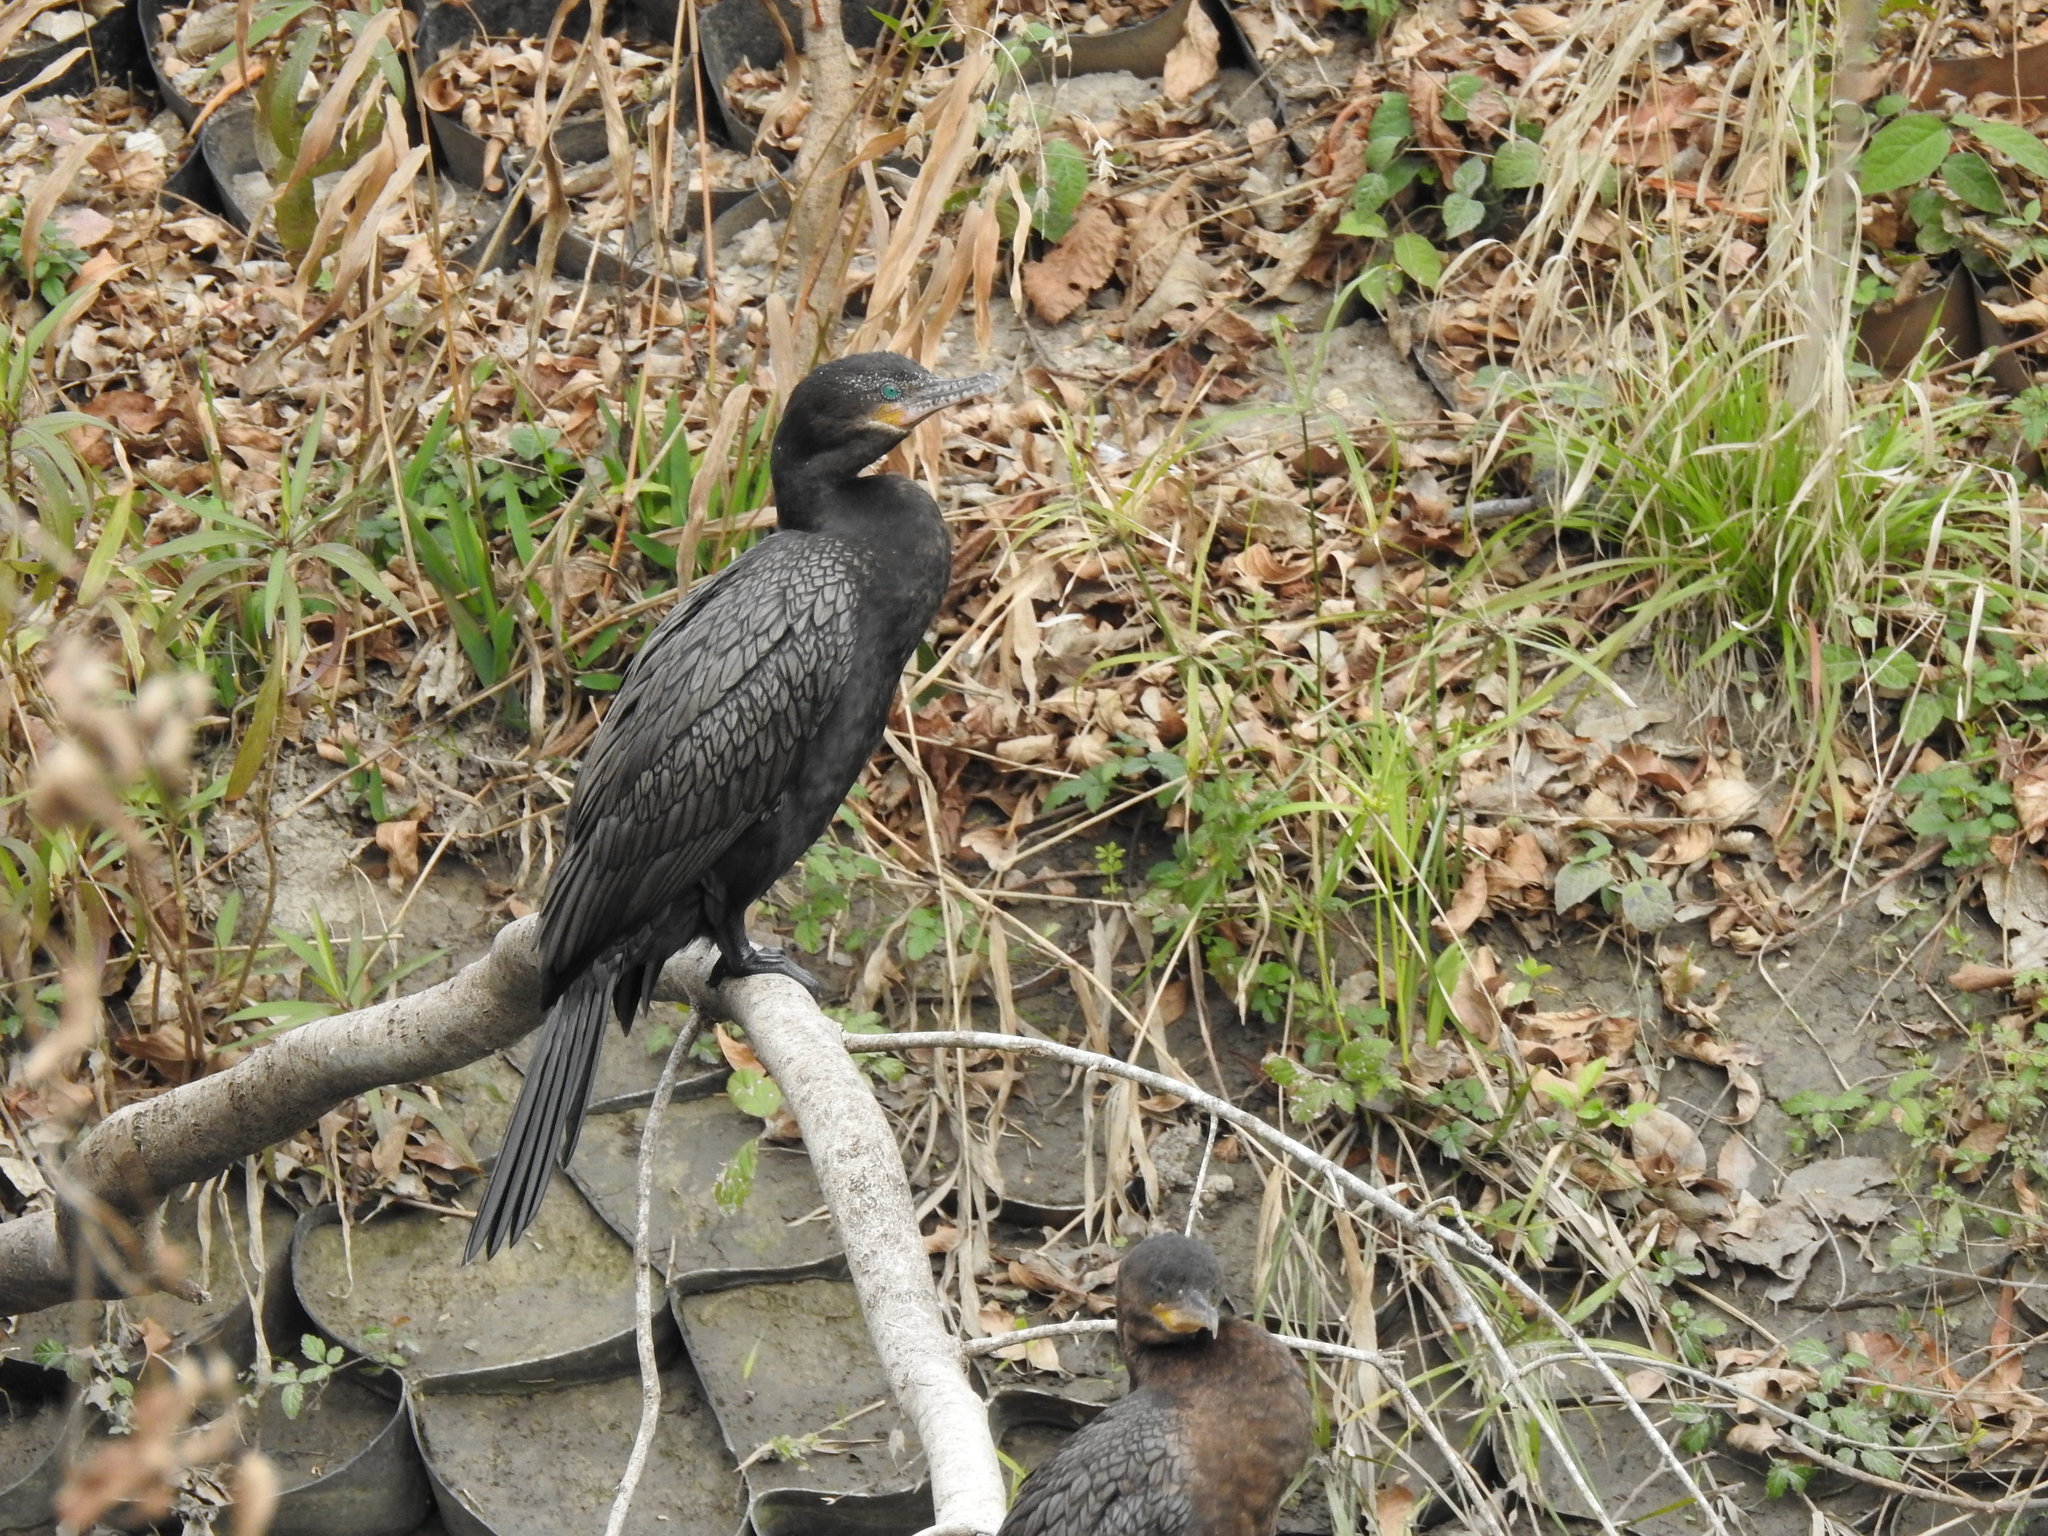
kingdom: Animalia
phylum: Chordata
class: Aves
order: Suliformes
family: Phalacrocoracidae
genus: Phalacrocorax
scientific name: Phalacrocorax brasilianus
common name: Neotropic cormorant
